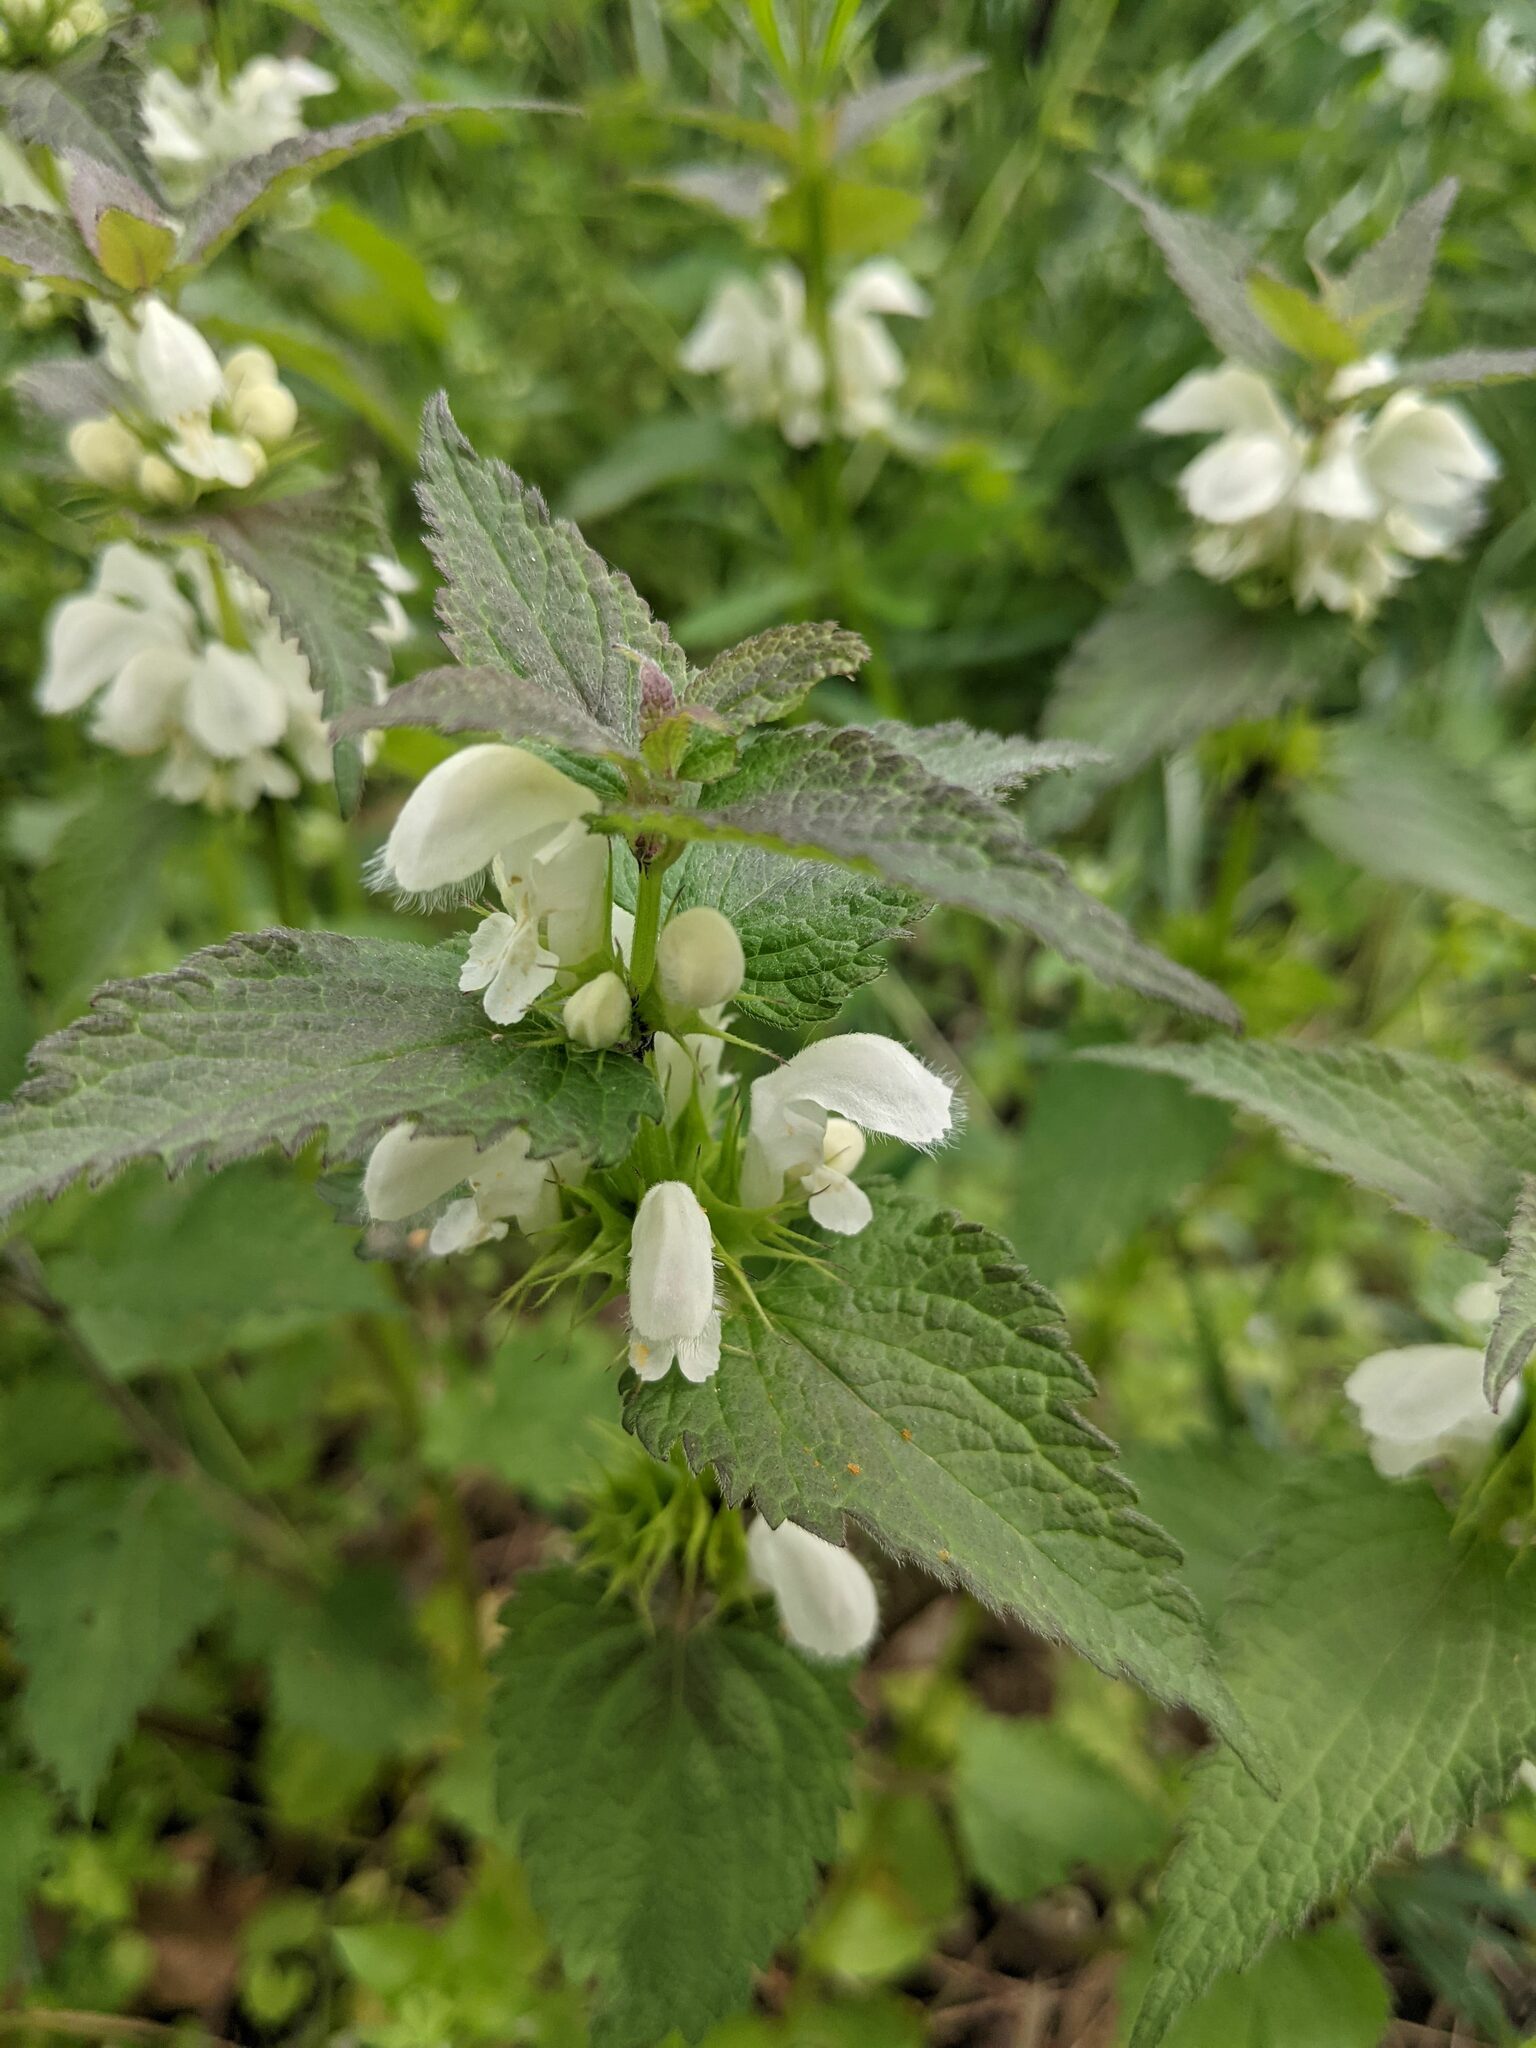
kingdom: Plantae
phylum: Tracheophyta
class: Magnoliopsida
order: Lamiales
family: Lamiaceae
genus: Lamium
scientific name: Lamium album
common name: White dead-nettle
